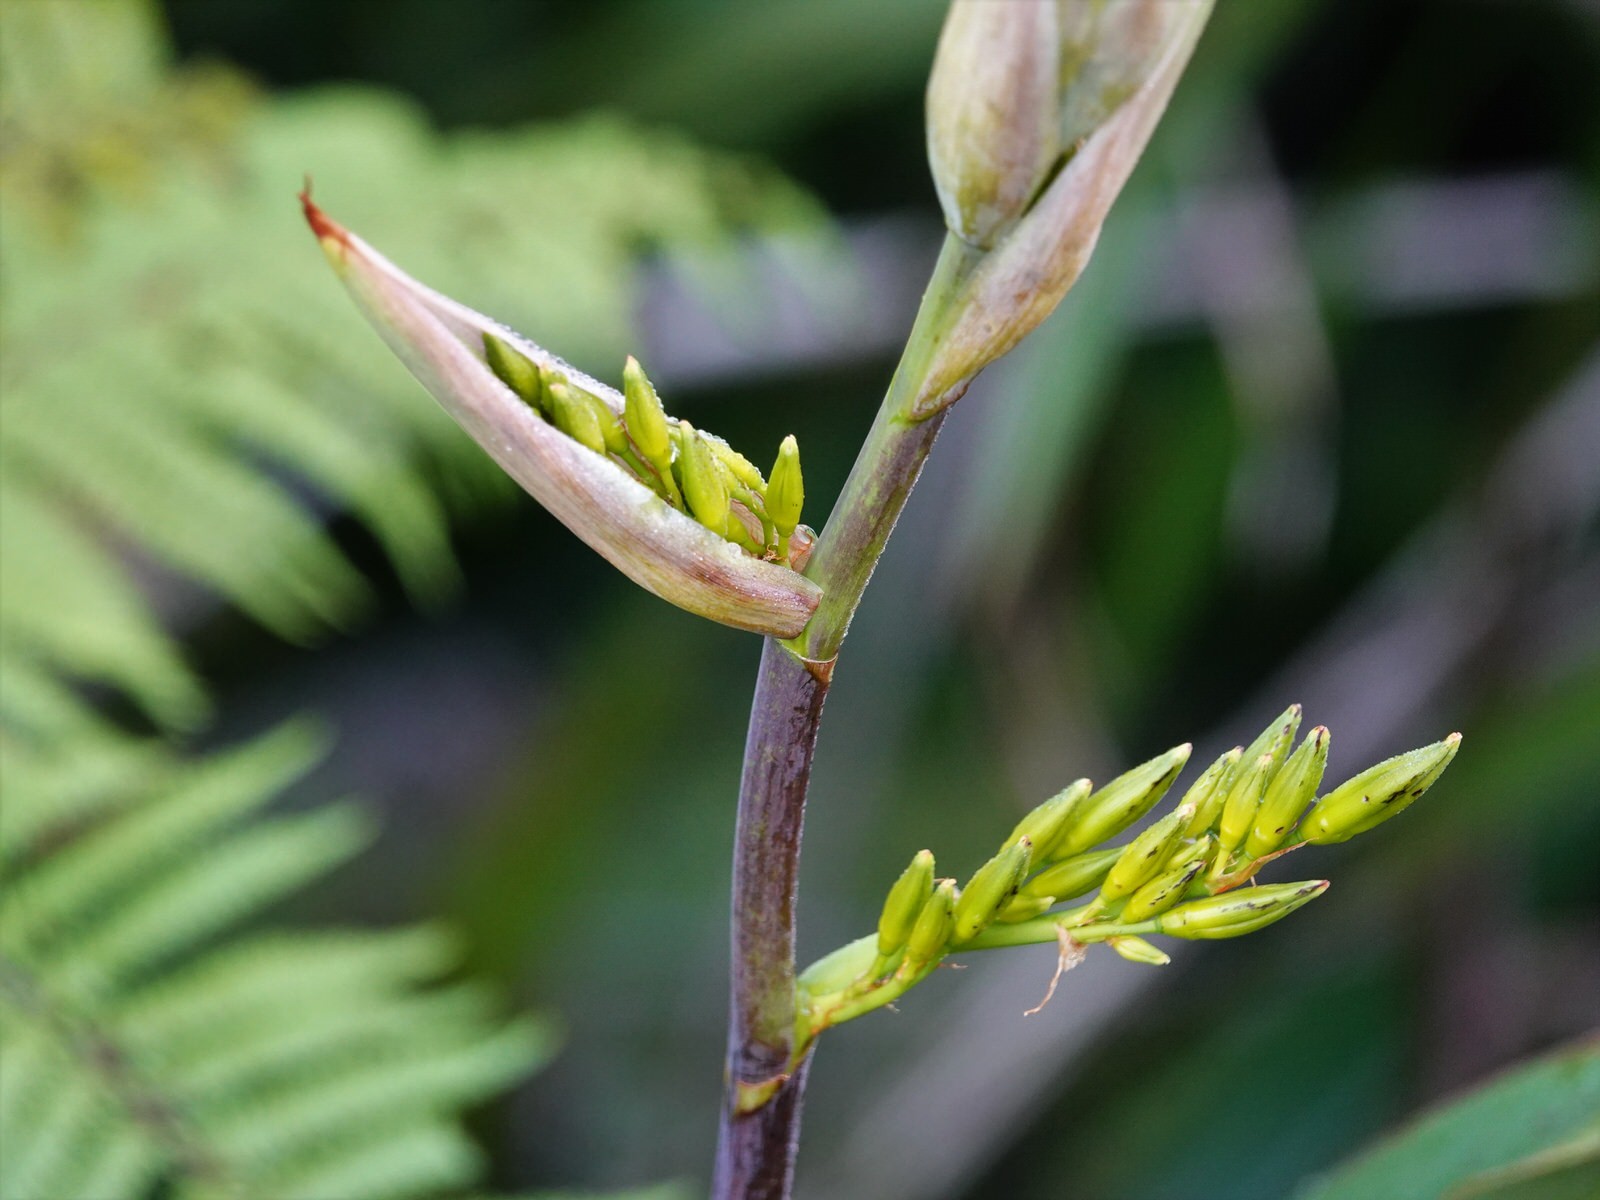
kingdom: Plantae
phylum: Tracheophyta
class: Liliopsida
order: Asparagales
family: Asphodelaceae
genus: Phormium
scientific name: Phormium colensoi
